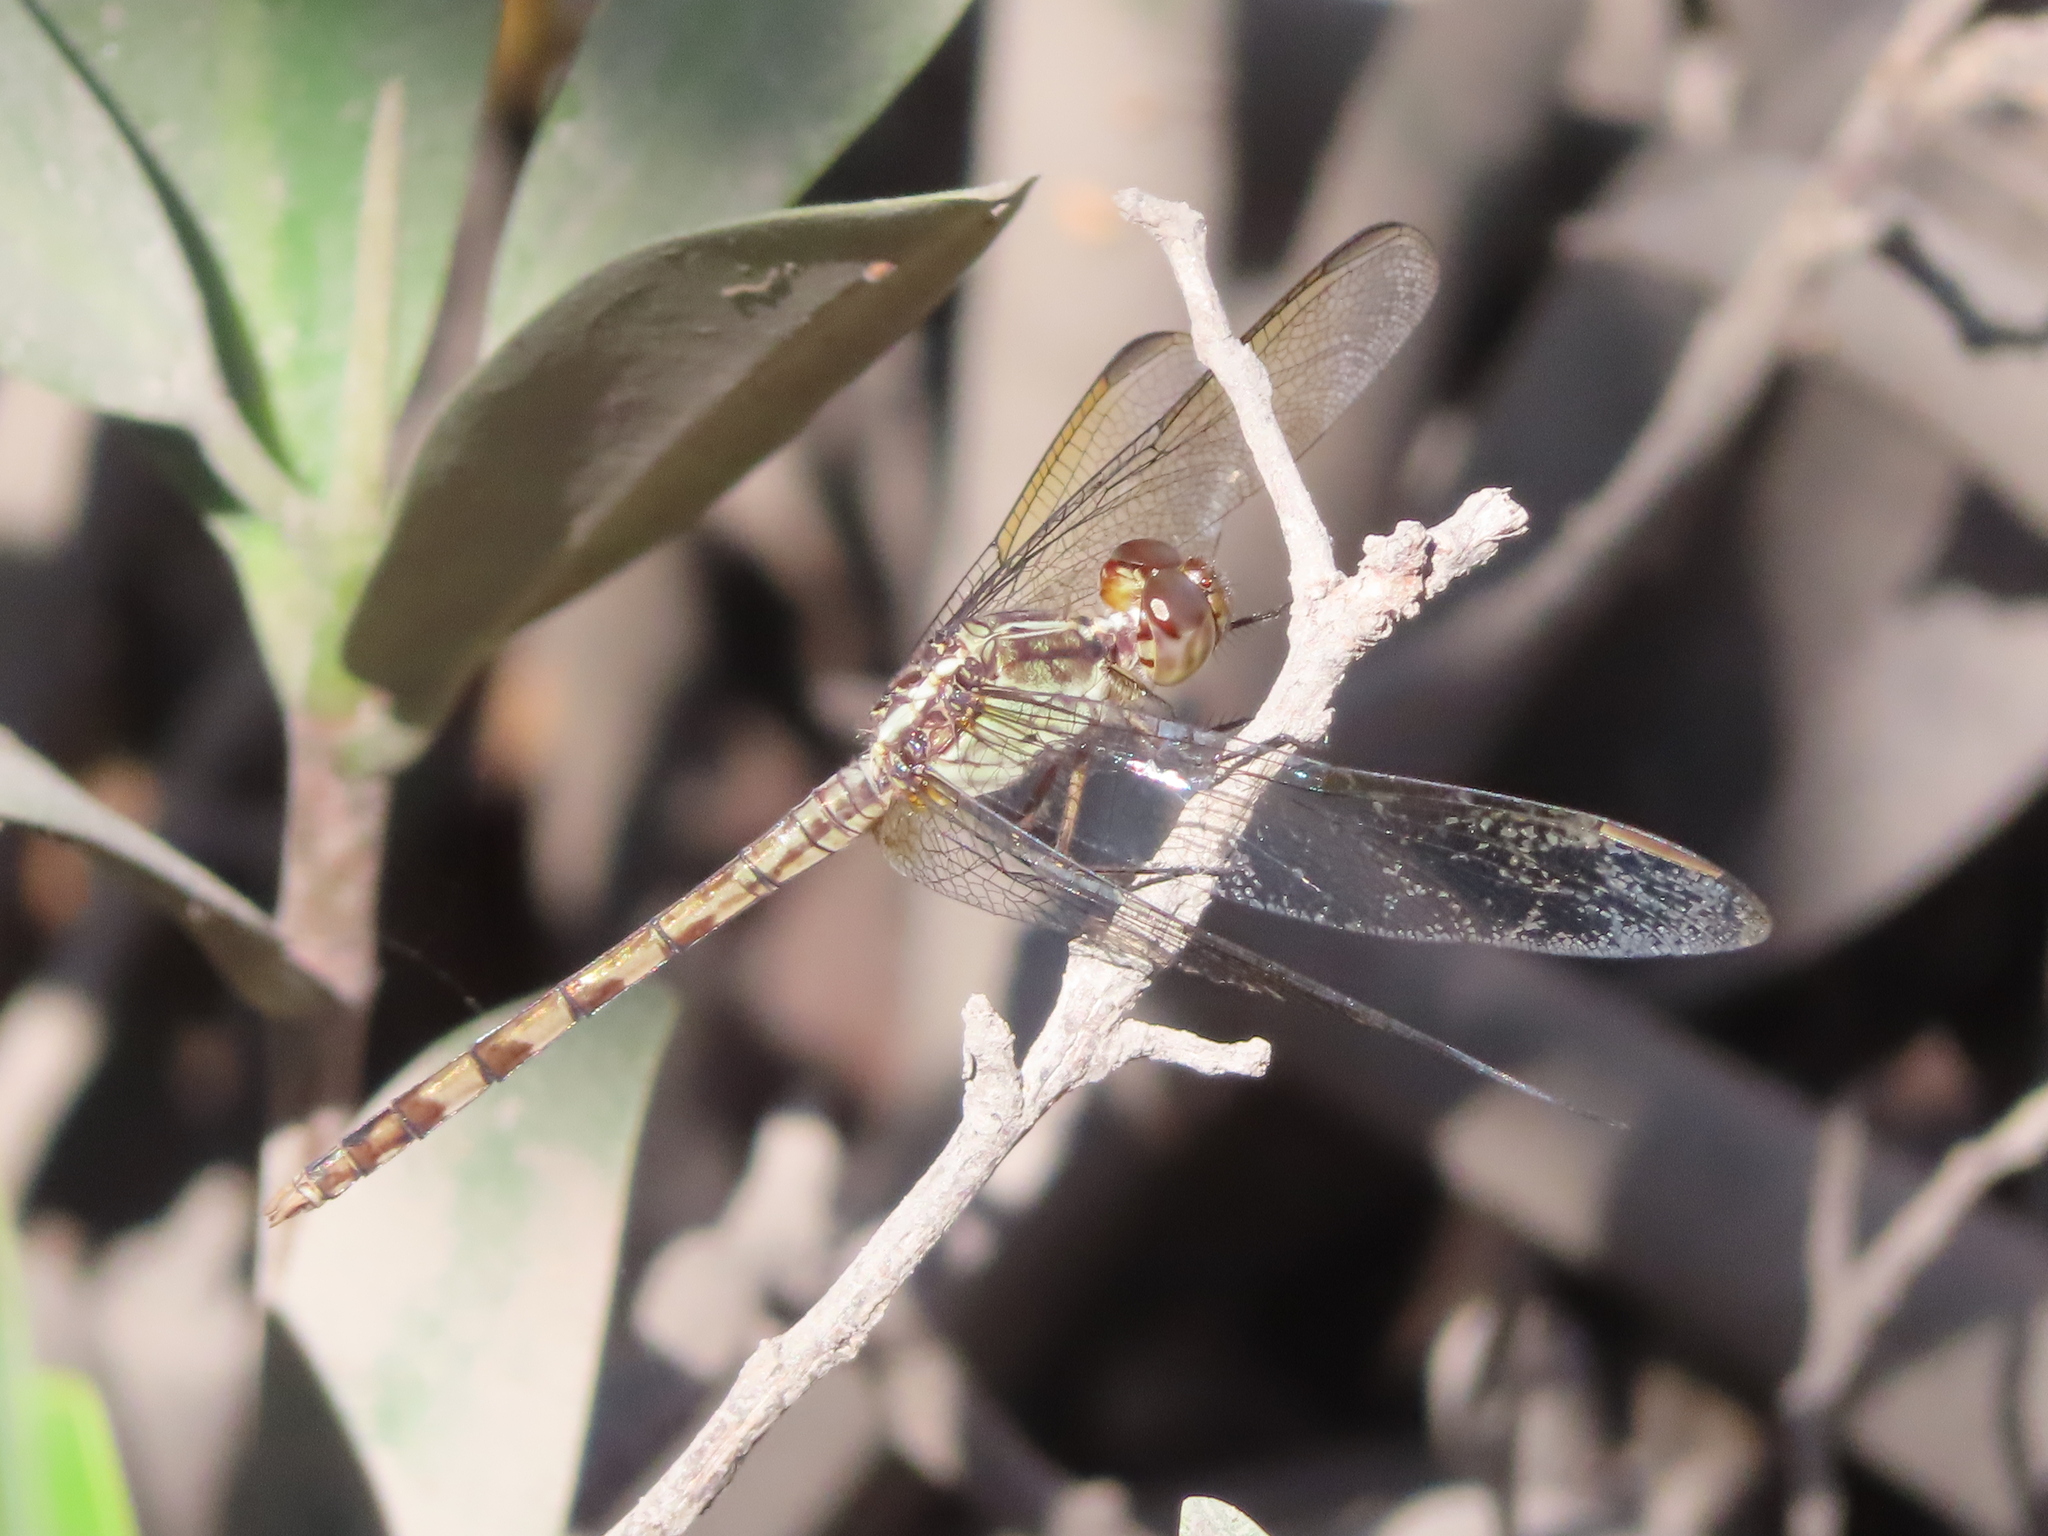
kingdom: Animalia
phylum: Arthropoda
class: Insecta
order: Odonata
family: Libellulidae
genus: Erythrodiplax
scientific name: Erythrodiplax umbrata
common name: Band-winged dragonlet
